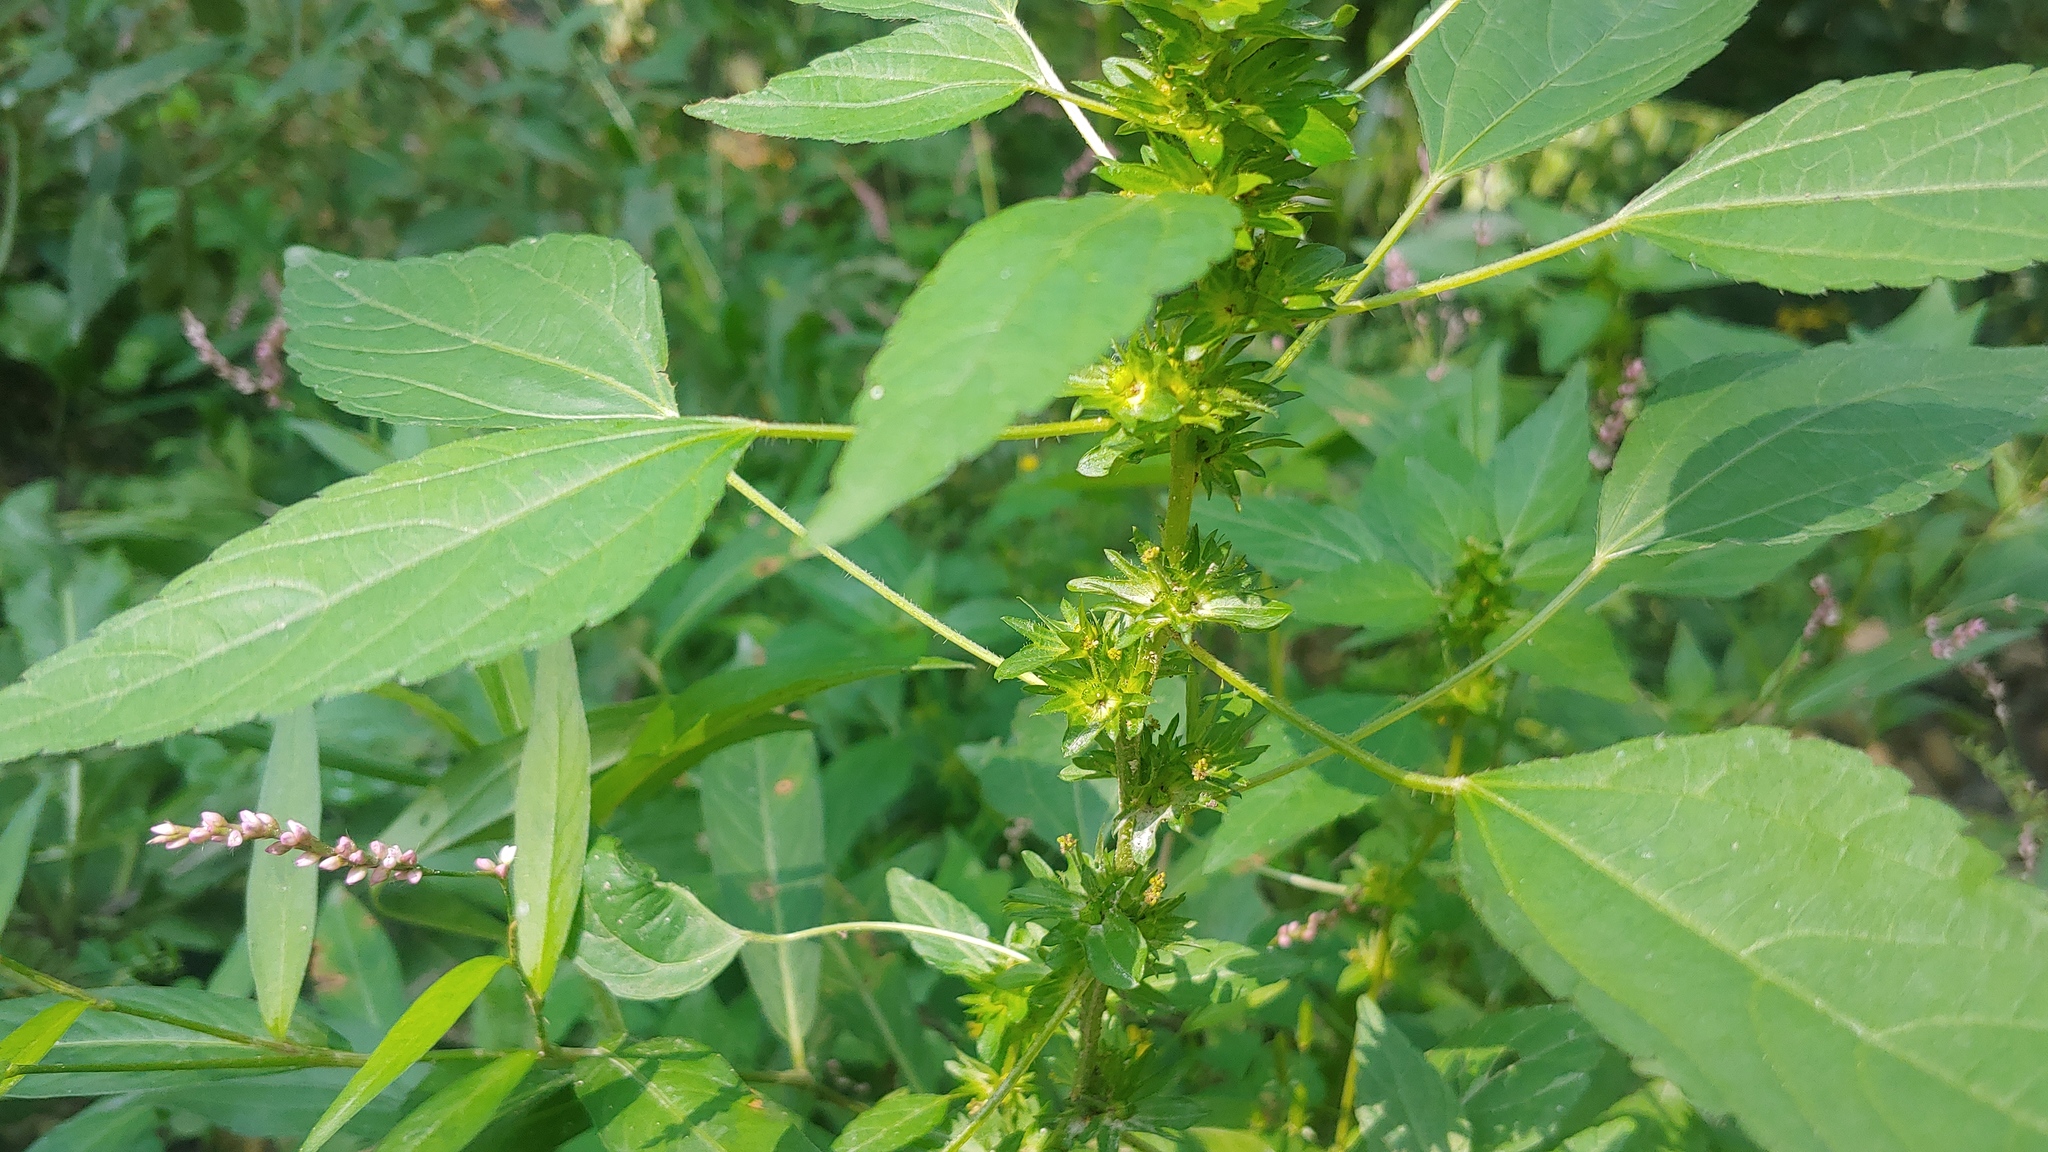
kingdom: Plantae
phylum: Tracheophyta
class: Magnoliopsida
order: Malpighiales
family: Euphorbiaceae
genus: Acalypha
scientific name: Acalypha rhomboidea
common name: Rhombic copperleaf
